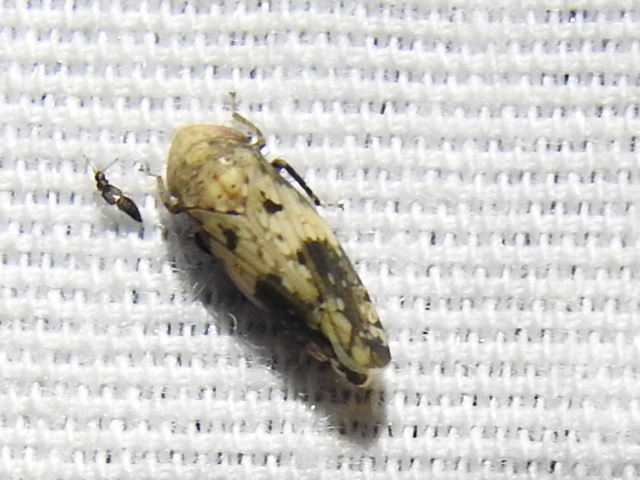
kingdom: Animalia
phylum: Arthropoda
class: Insecta
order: Hemiptera
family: Cicadellidae
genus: Menosoma
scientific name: Menosoma cinctum
